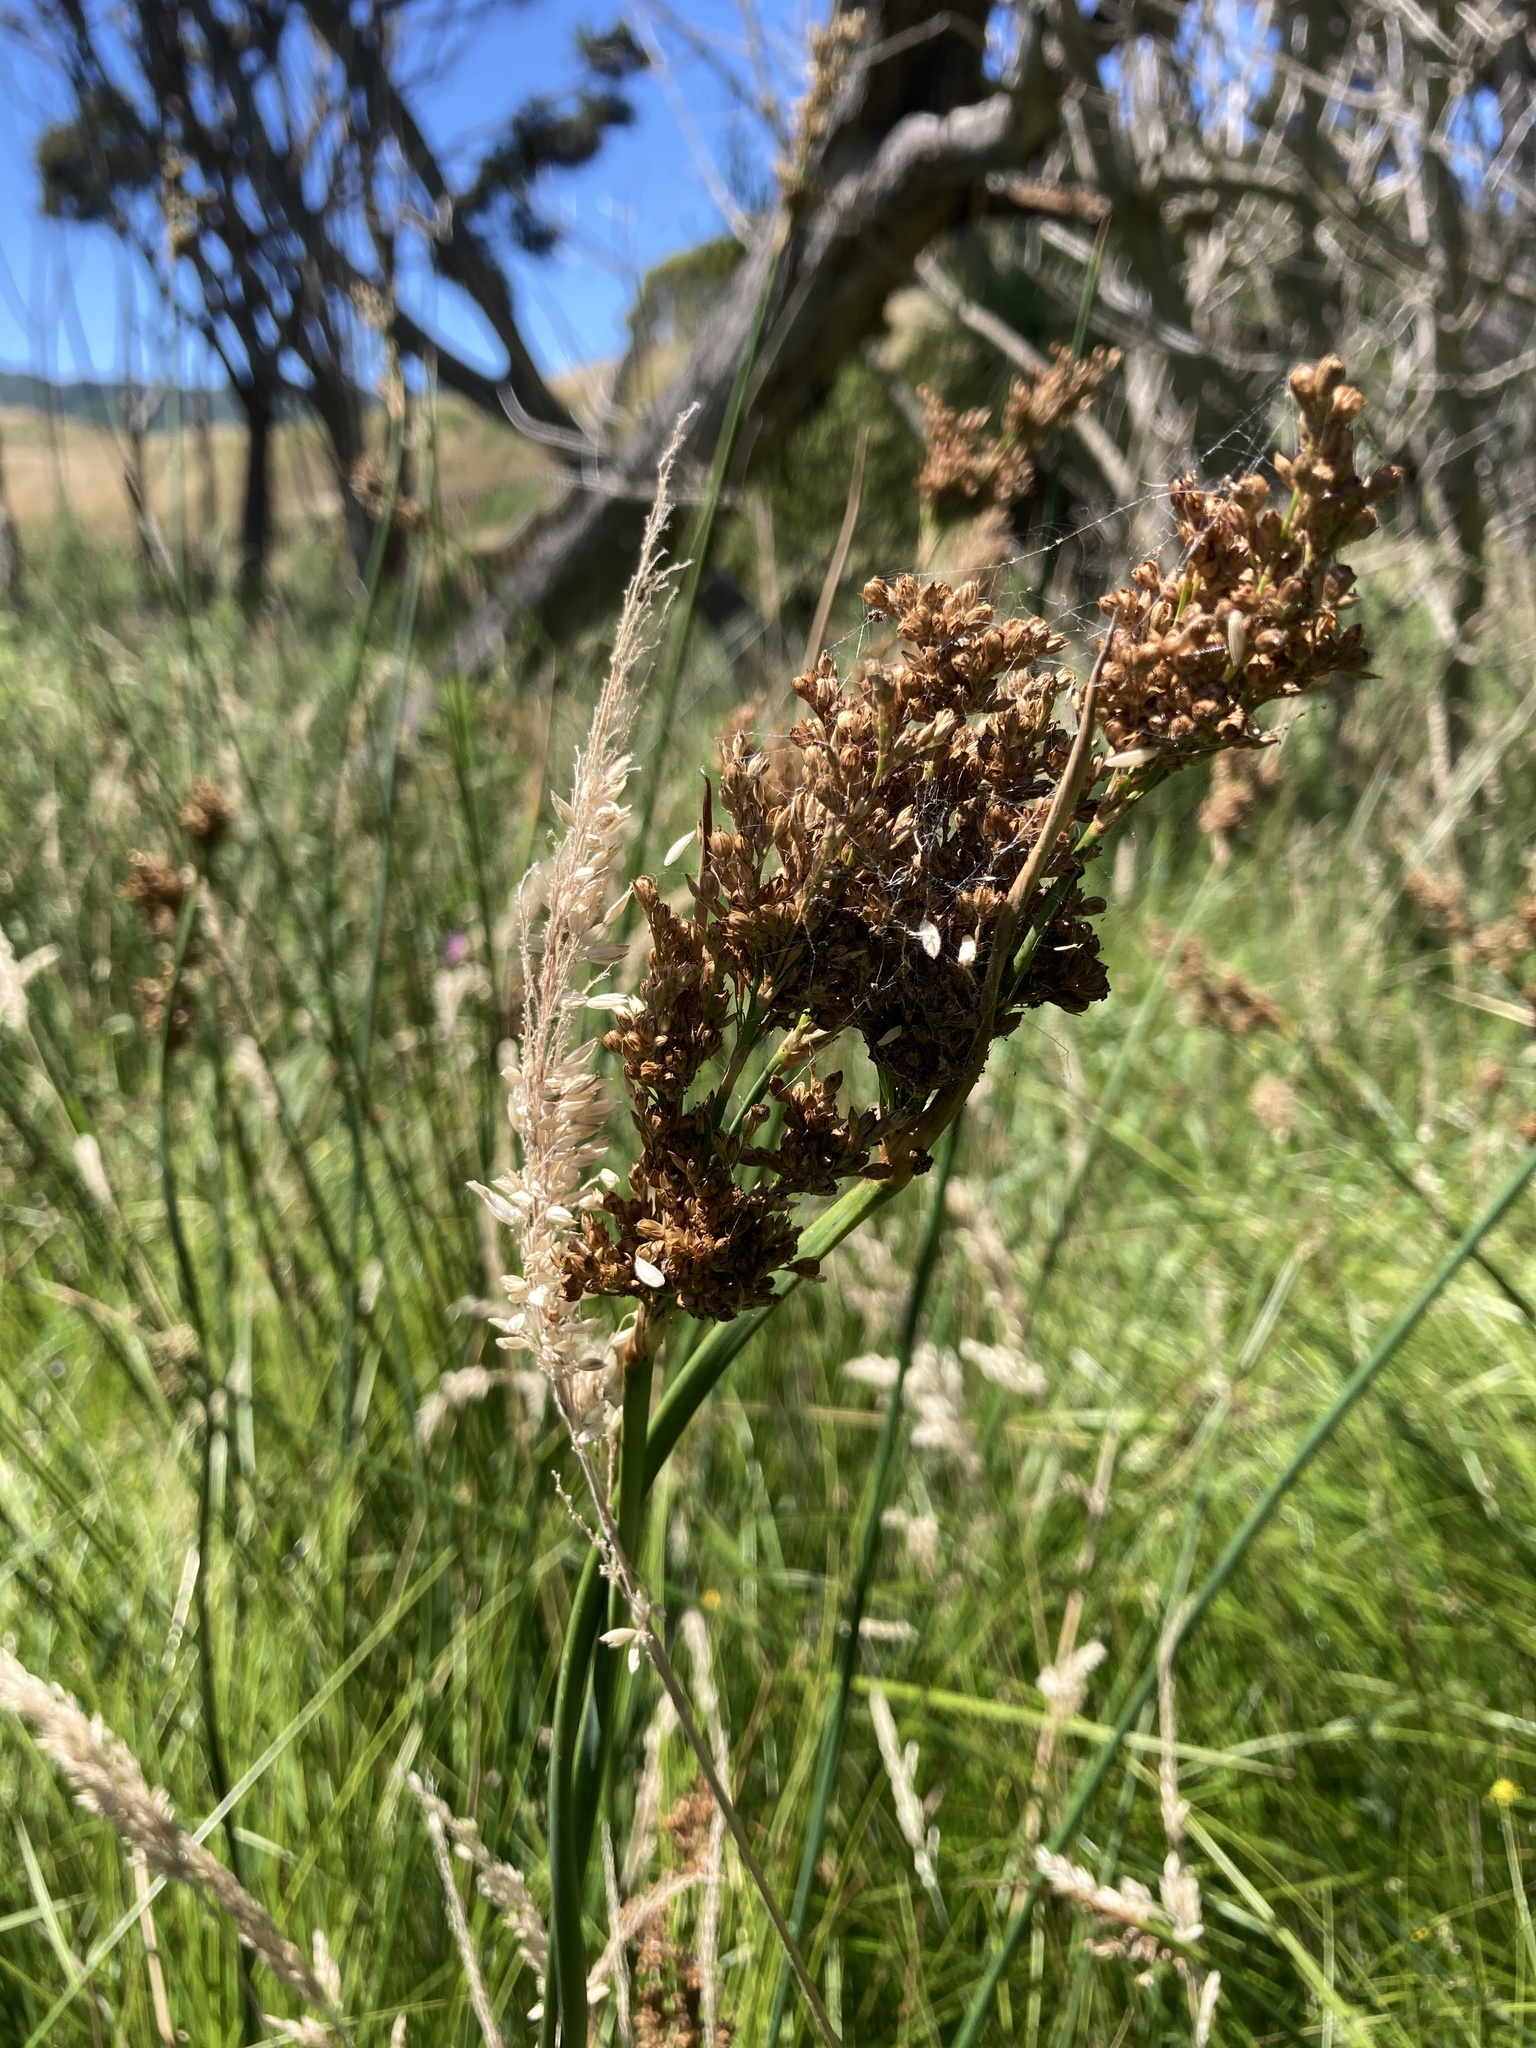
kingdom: Plantae
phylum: Tracheophyta
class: Liliopsida
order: Poales
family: Juncaceae
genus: Juncus
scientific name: Juncus pallidus
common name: Great soft-rush
